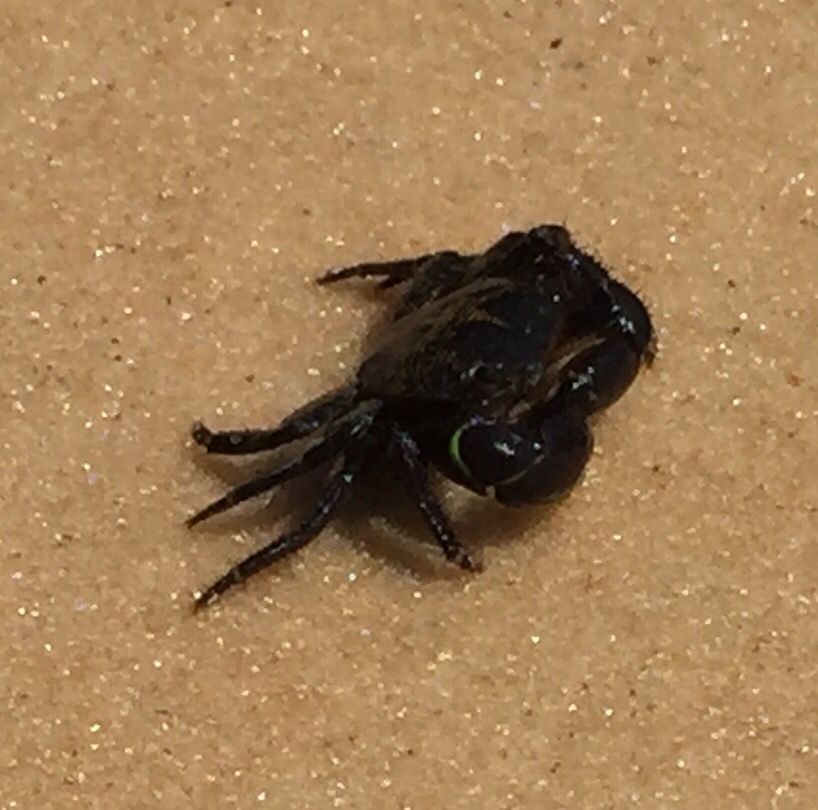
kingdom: Animalia
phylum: Arthropoda
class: Malacostraca
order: Decapoda
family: Grapsidae
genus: Pachygrapsus
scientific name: Pachygrapsus transversus
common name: Mottled shore crab
